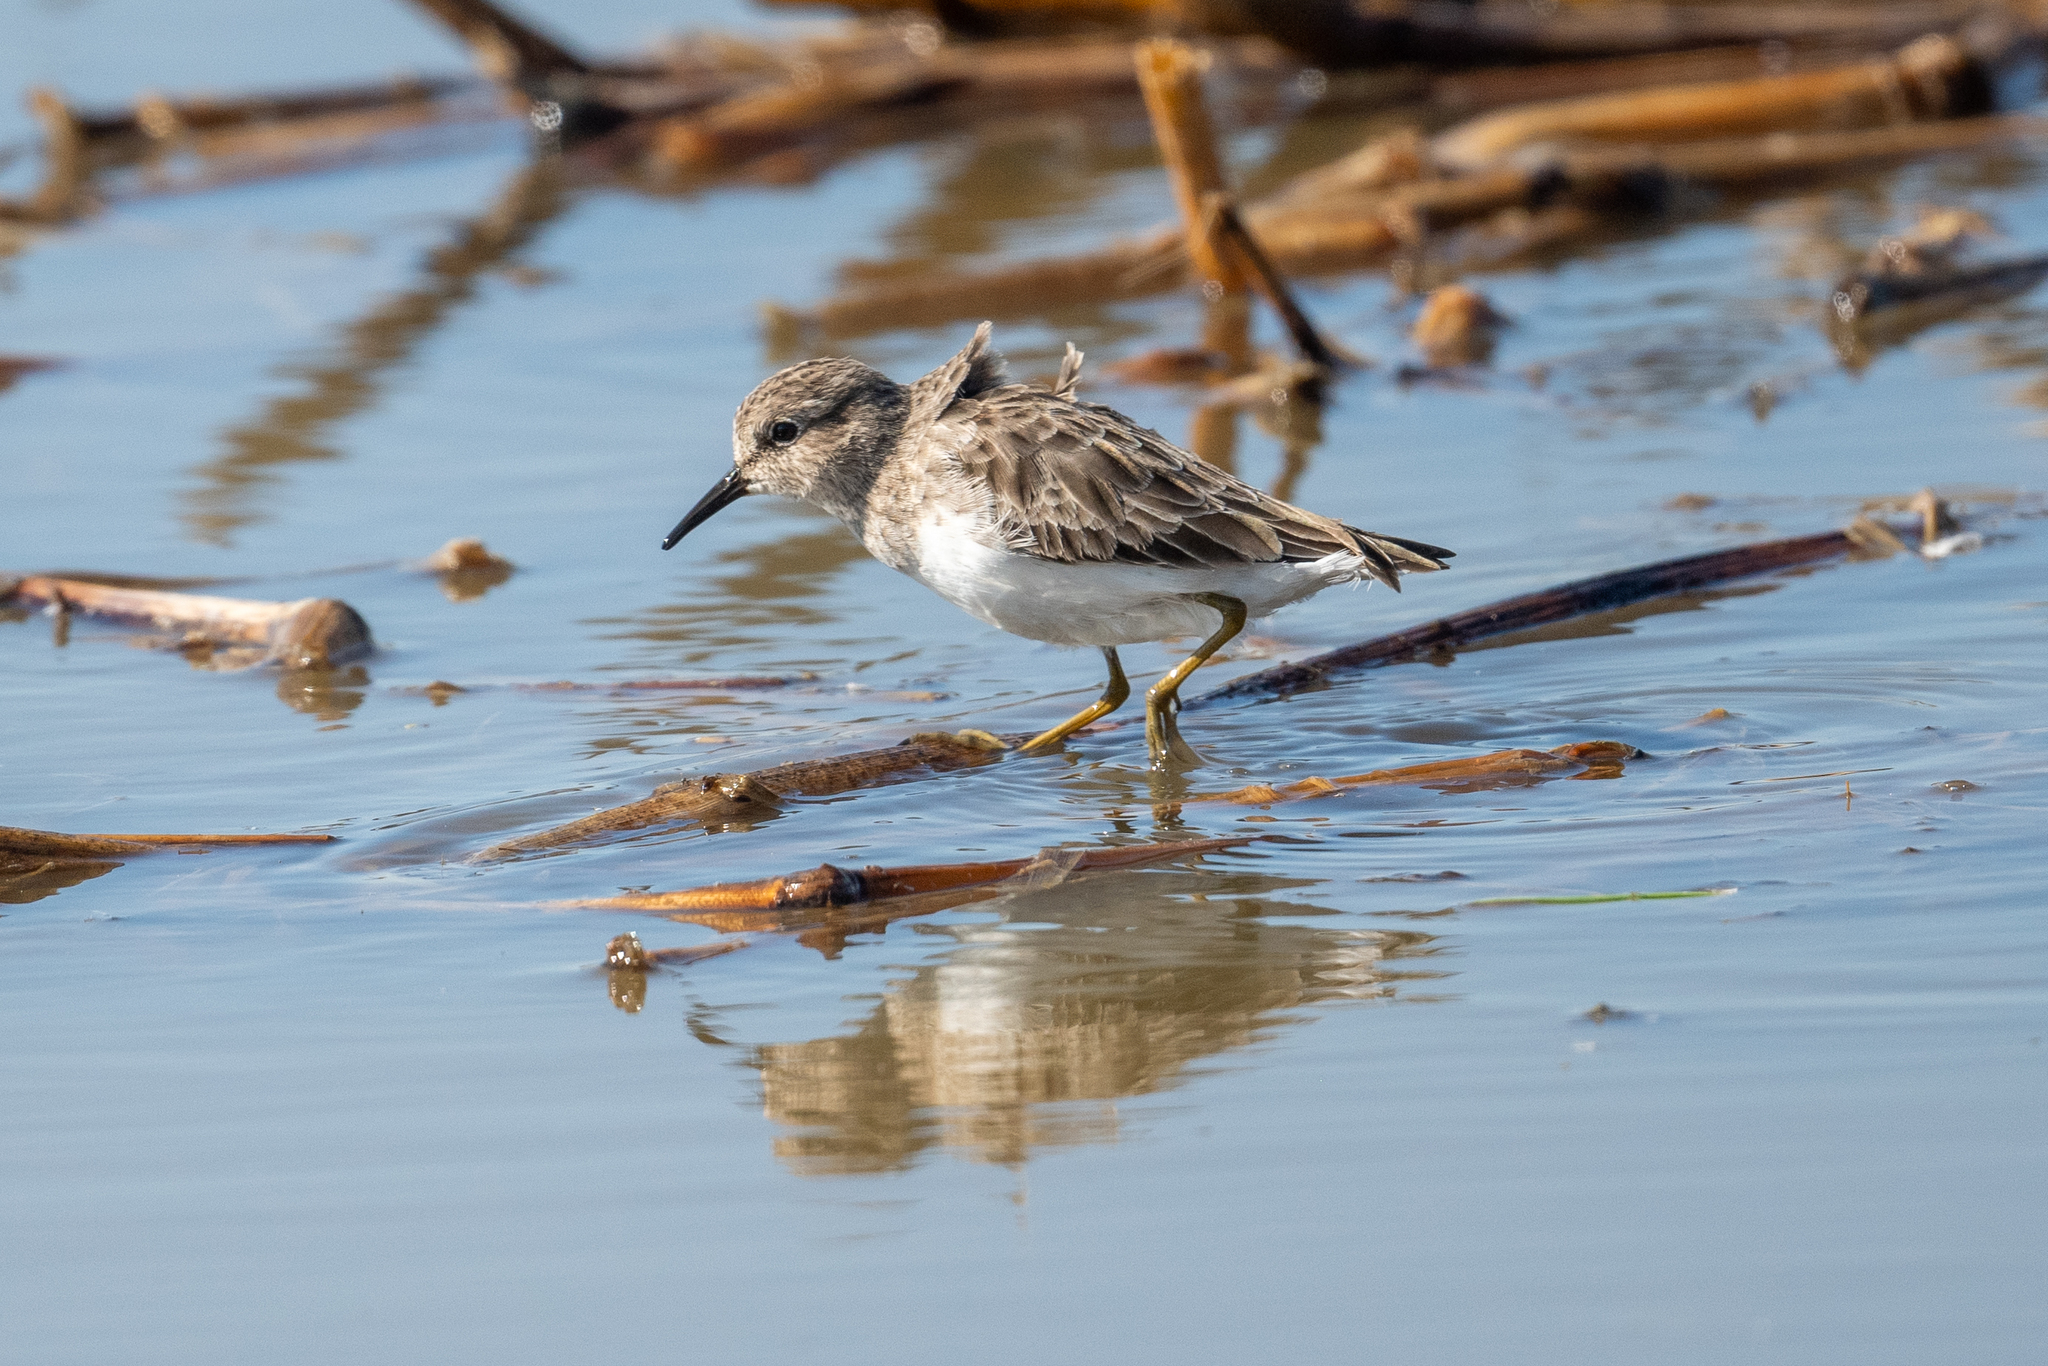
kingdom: Animalia
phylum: Chordata
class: Aves
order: Charadriiformes
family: Scolopacidae
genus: Calidris
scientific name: Calidris minutilla
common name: Least sandpiper
